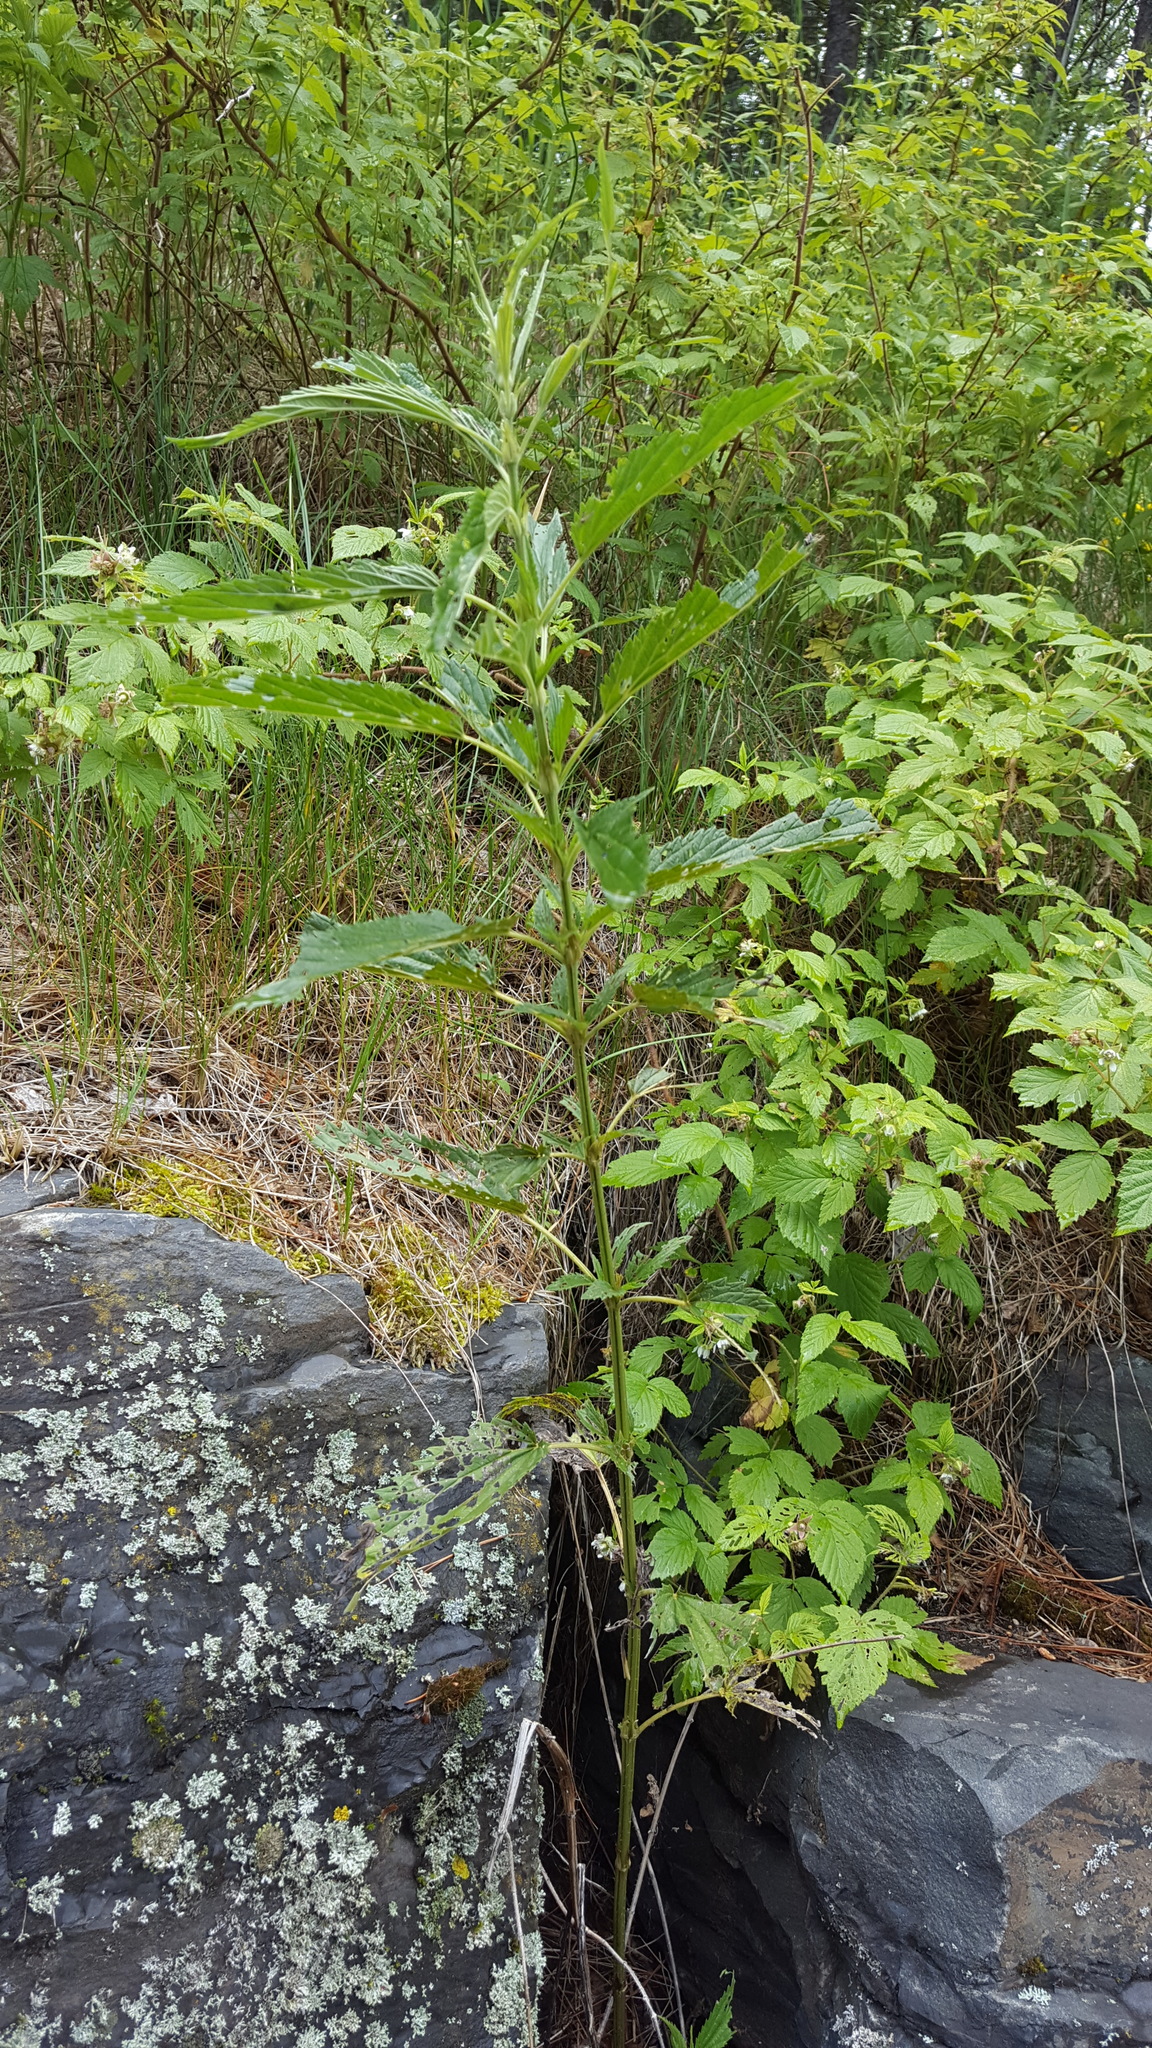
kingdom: Plantae
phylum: Tracheophyta
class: Magnoliopsida
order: Rosales
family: Urticaceae
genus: Urtica
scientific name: Urtica dioica
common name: Common nettle
